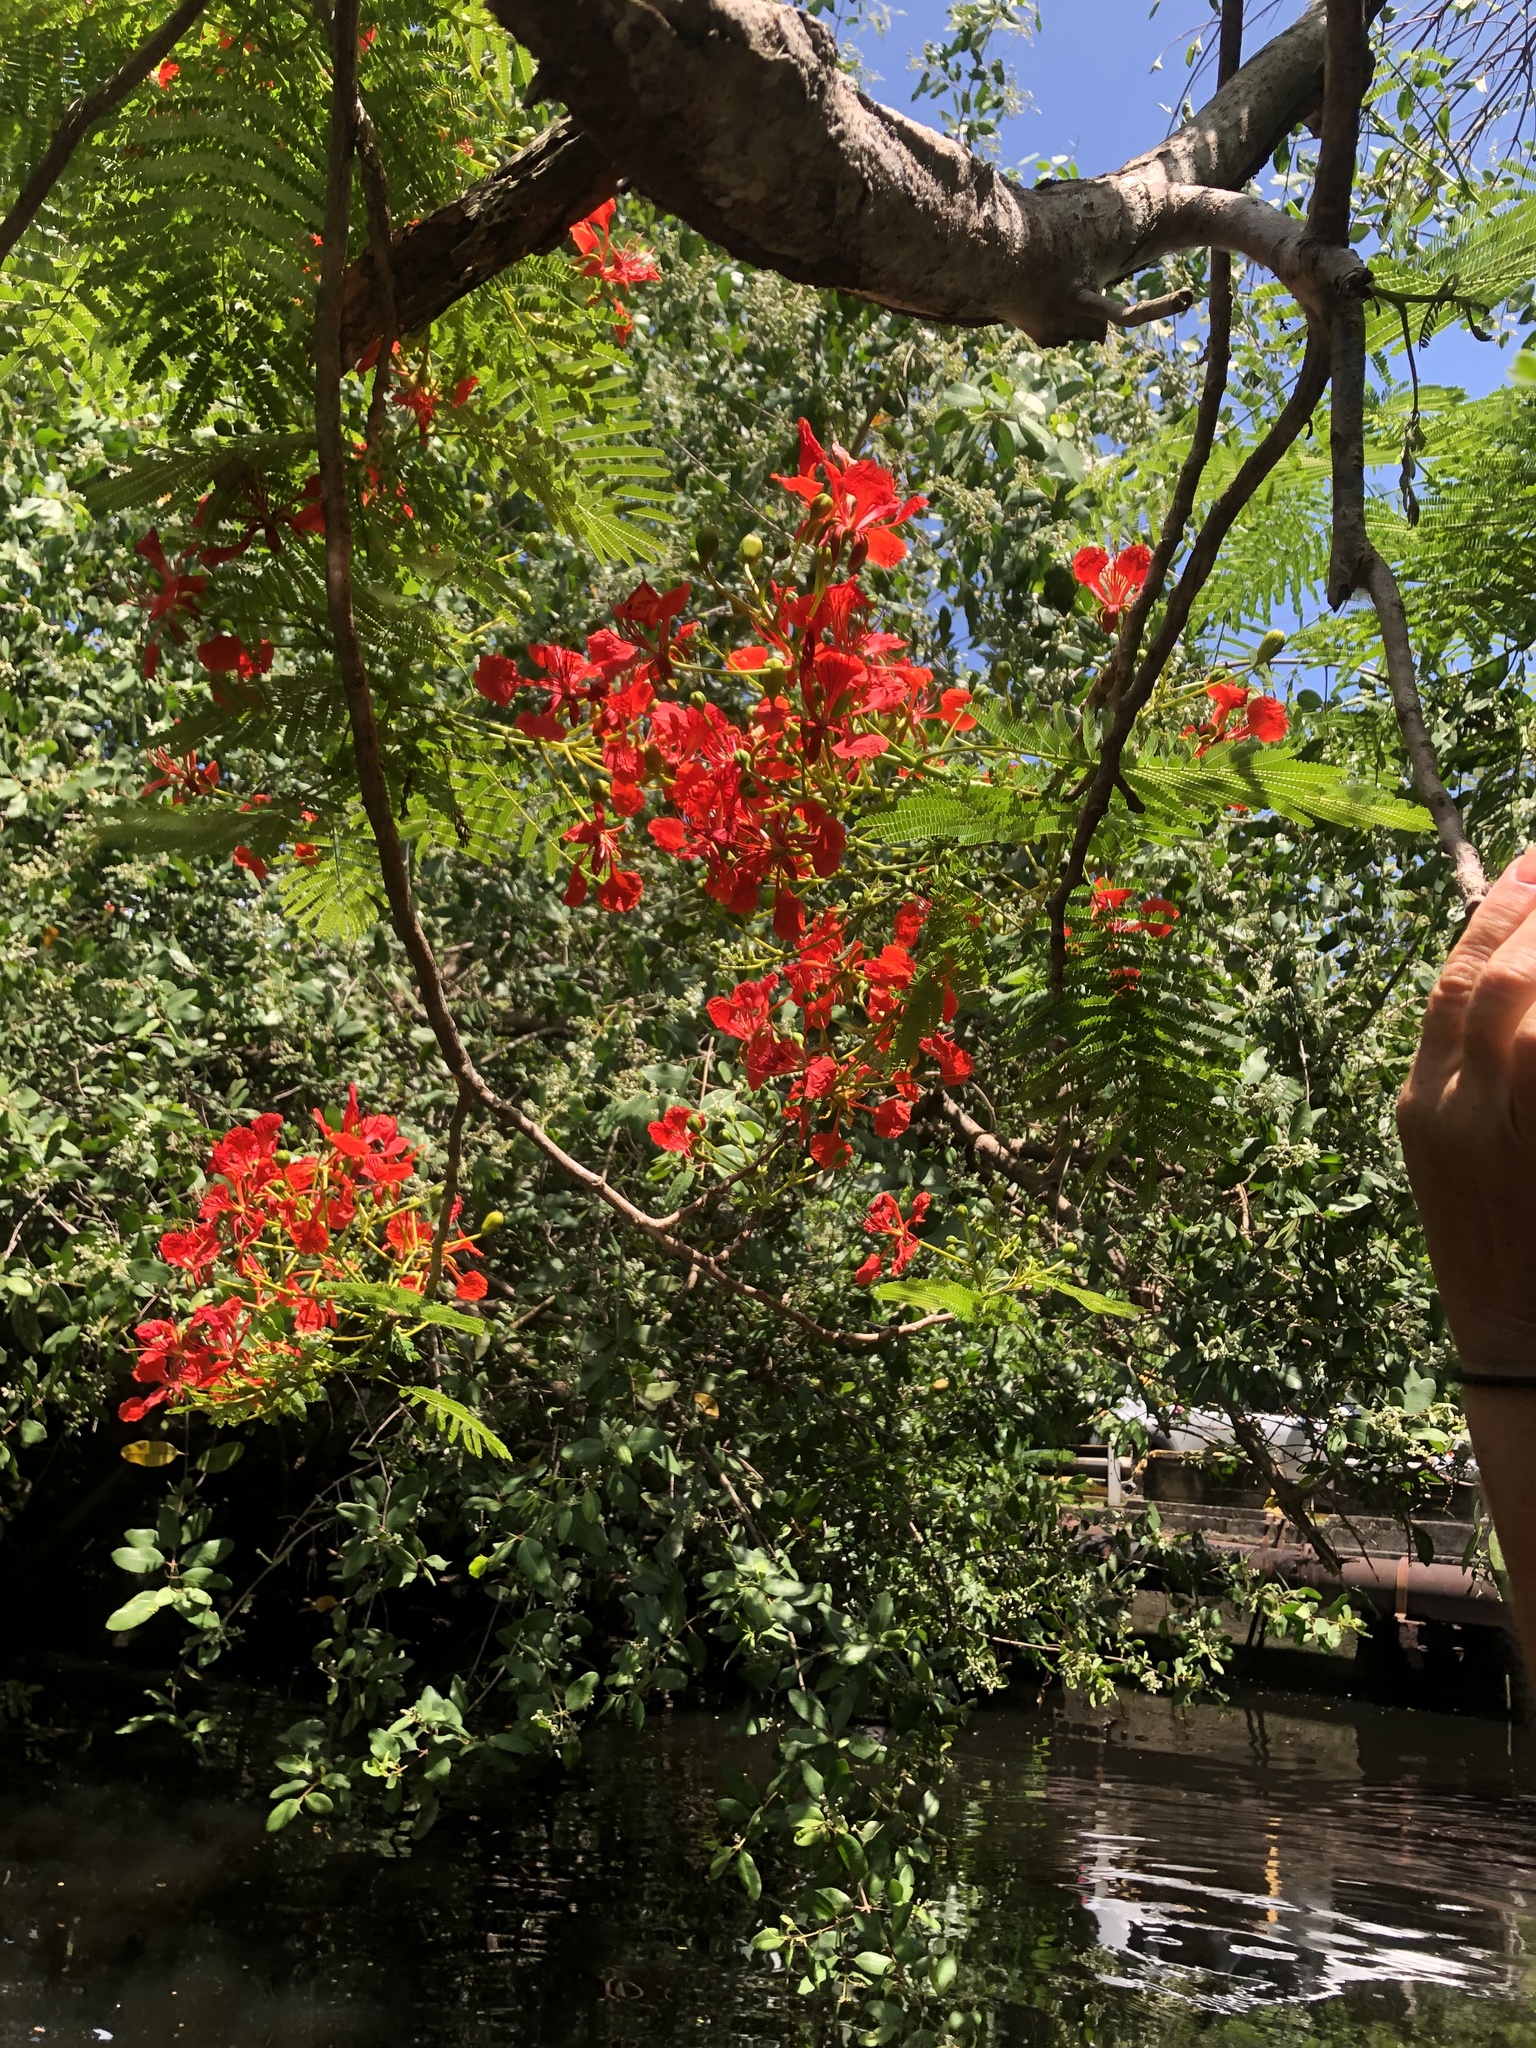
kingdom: Plantae
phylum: Tracheophyta
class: Magnoliopsida
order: Fabales
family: Fabaceae
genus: Delonix
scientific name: Delonix regia
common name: Royal poinciana
